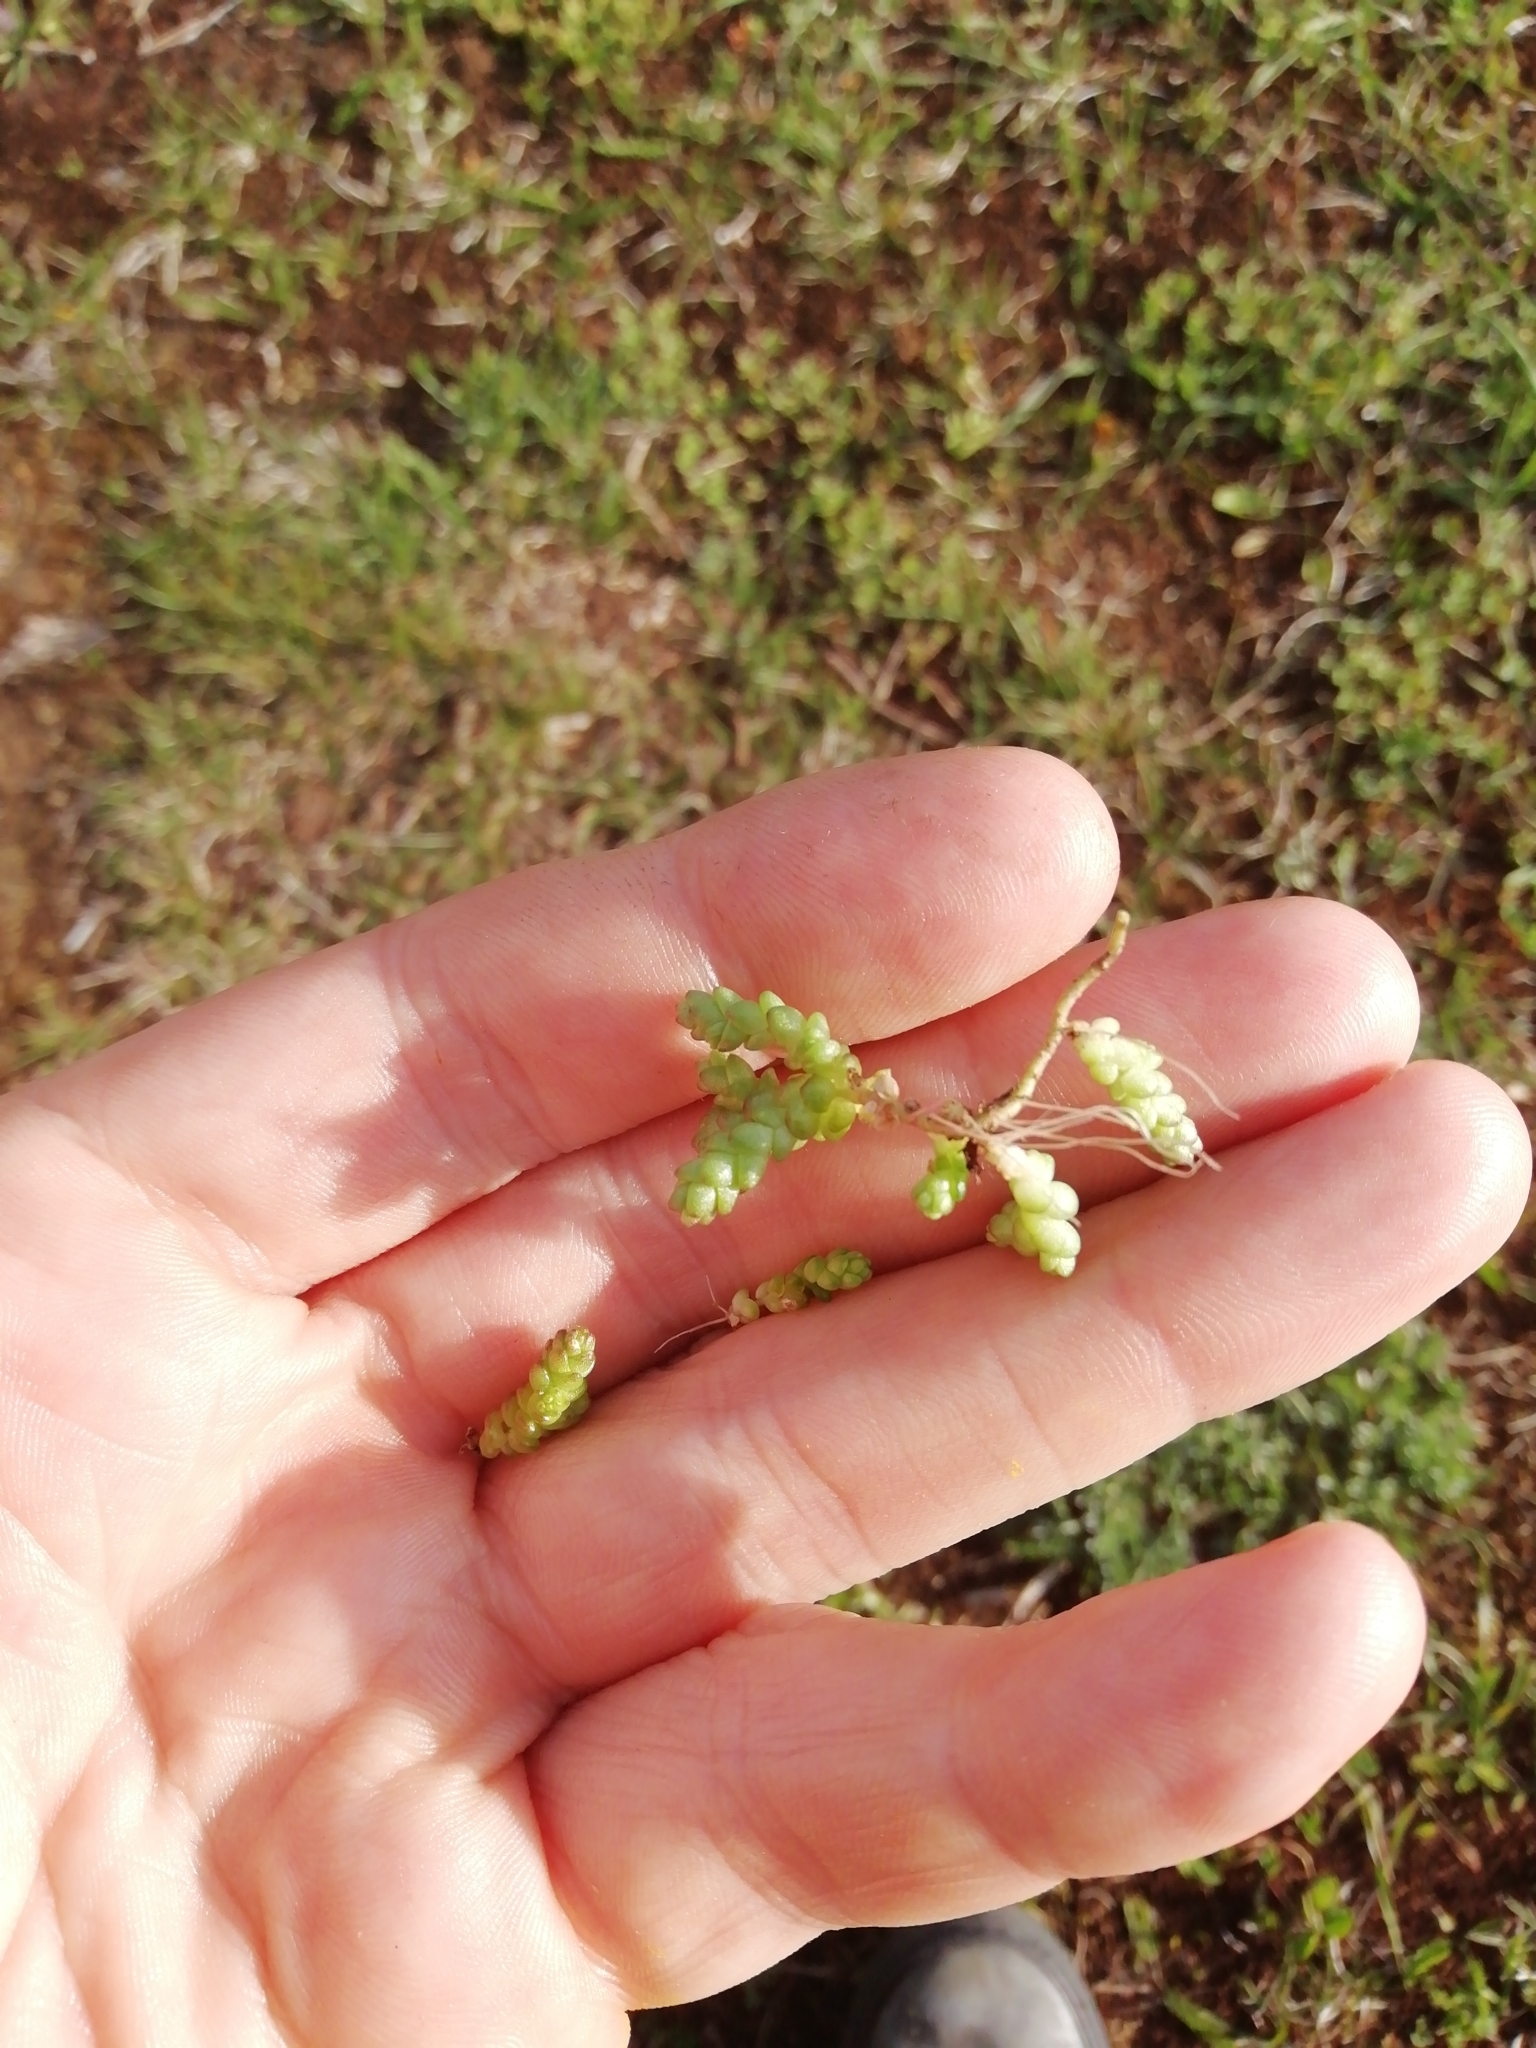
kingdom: Plantae
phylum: Tracheophyta
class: Magnoliopsida
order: Saxifragales
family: Crassulaceae
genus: Sedum
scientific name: Sedum acre
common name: Biting stonecrop
